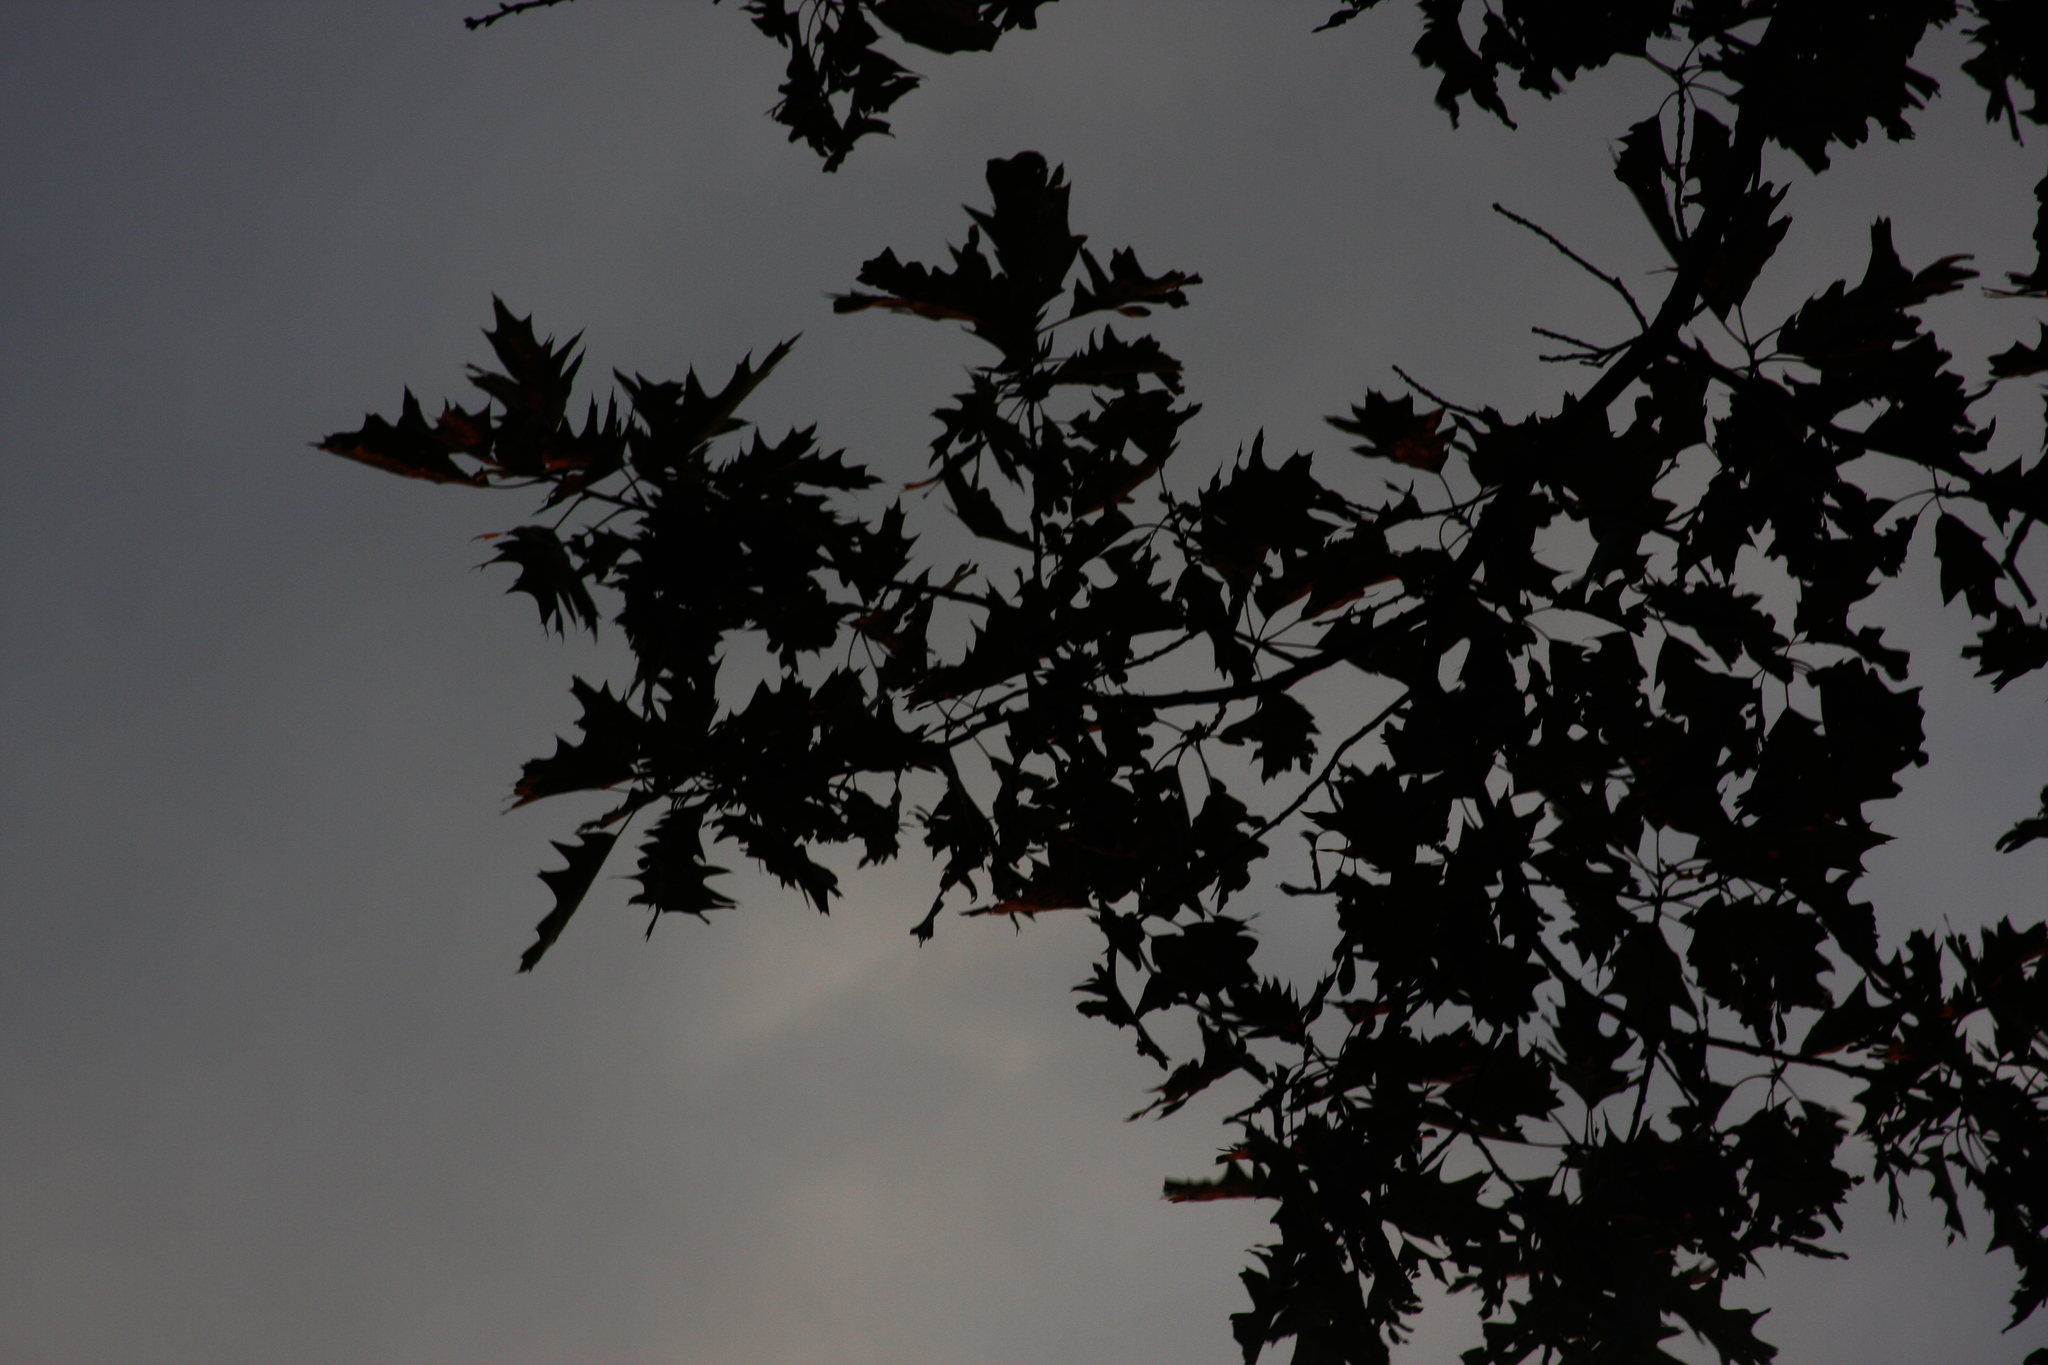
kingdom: Plantae
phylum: Tracheophyta
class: Magnoliopsida
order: Fagales
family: Fagaceae
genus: Quercus
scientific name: Quercus rubra
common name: Red oak
